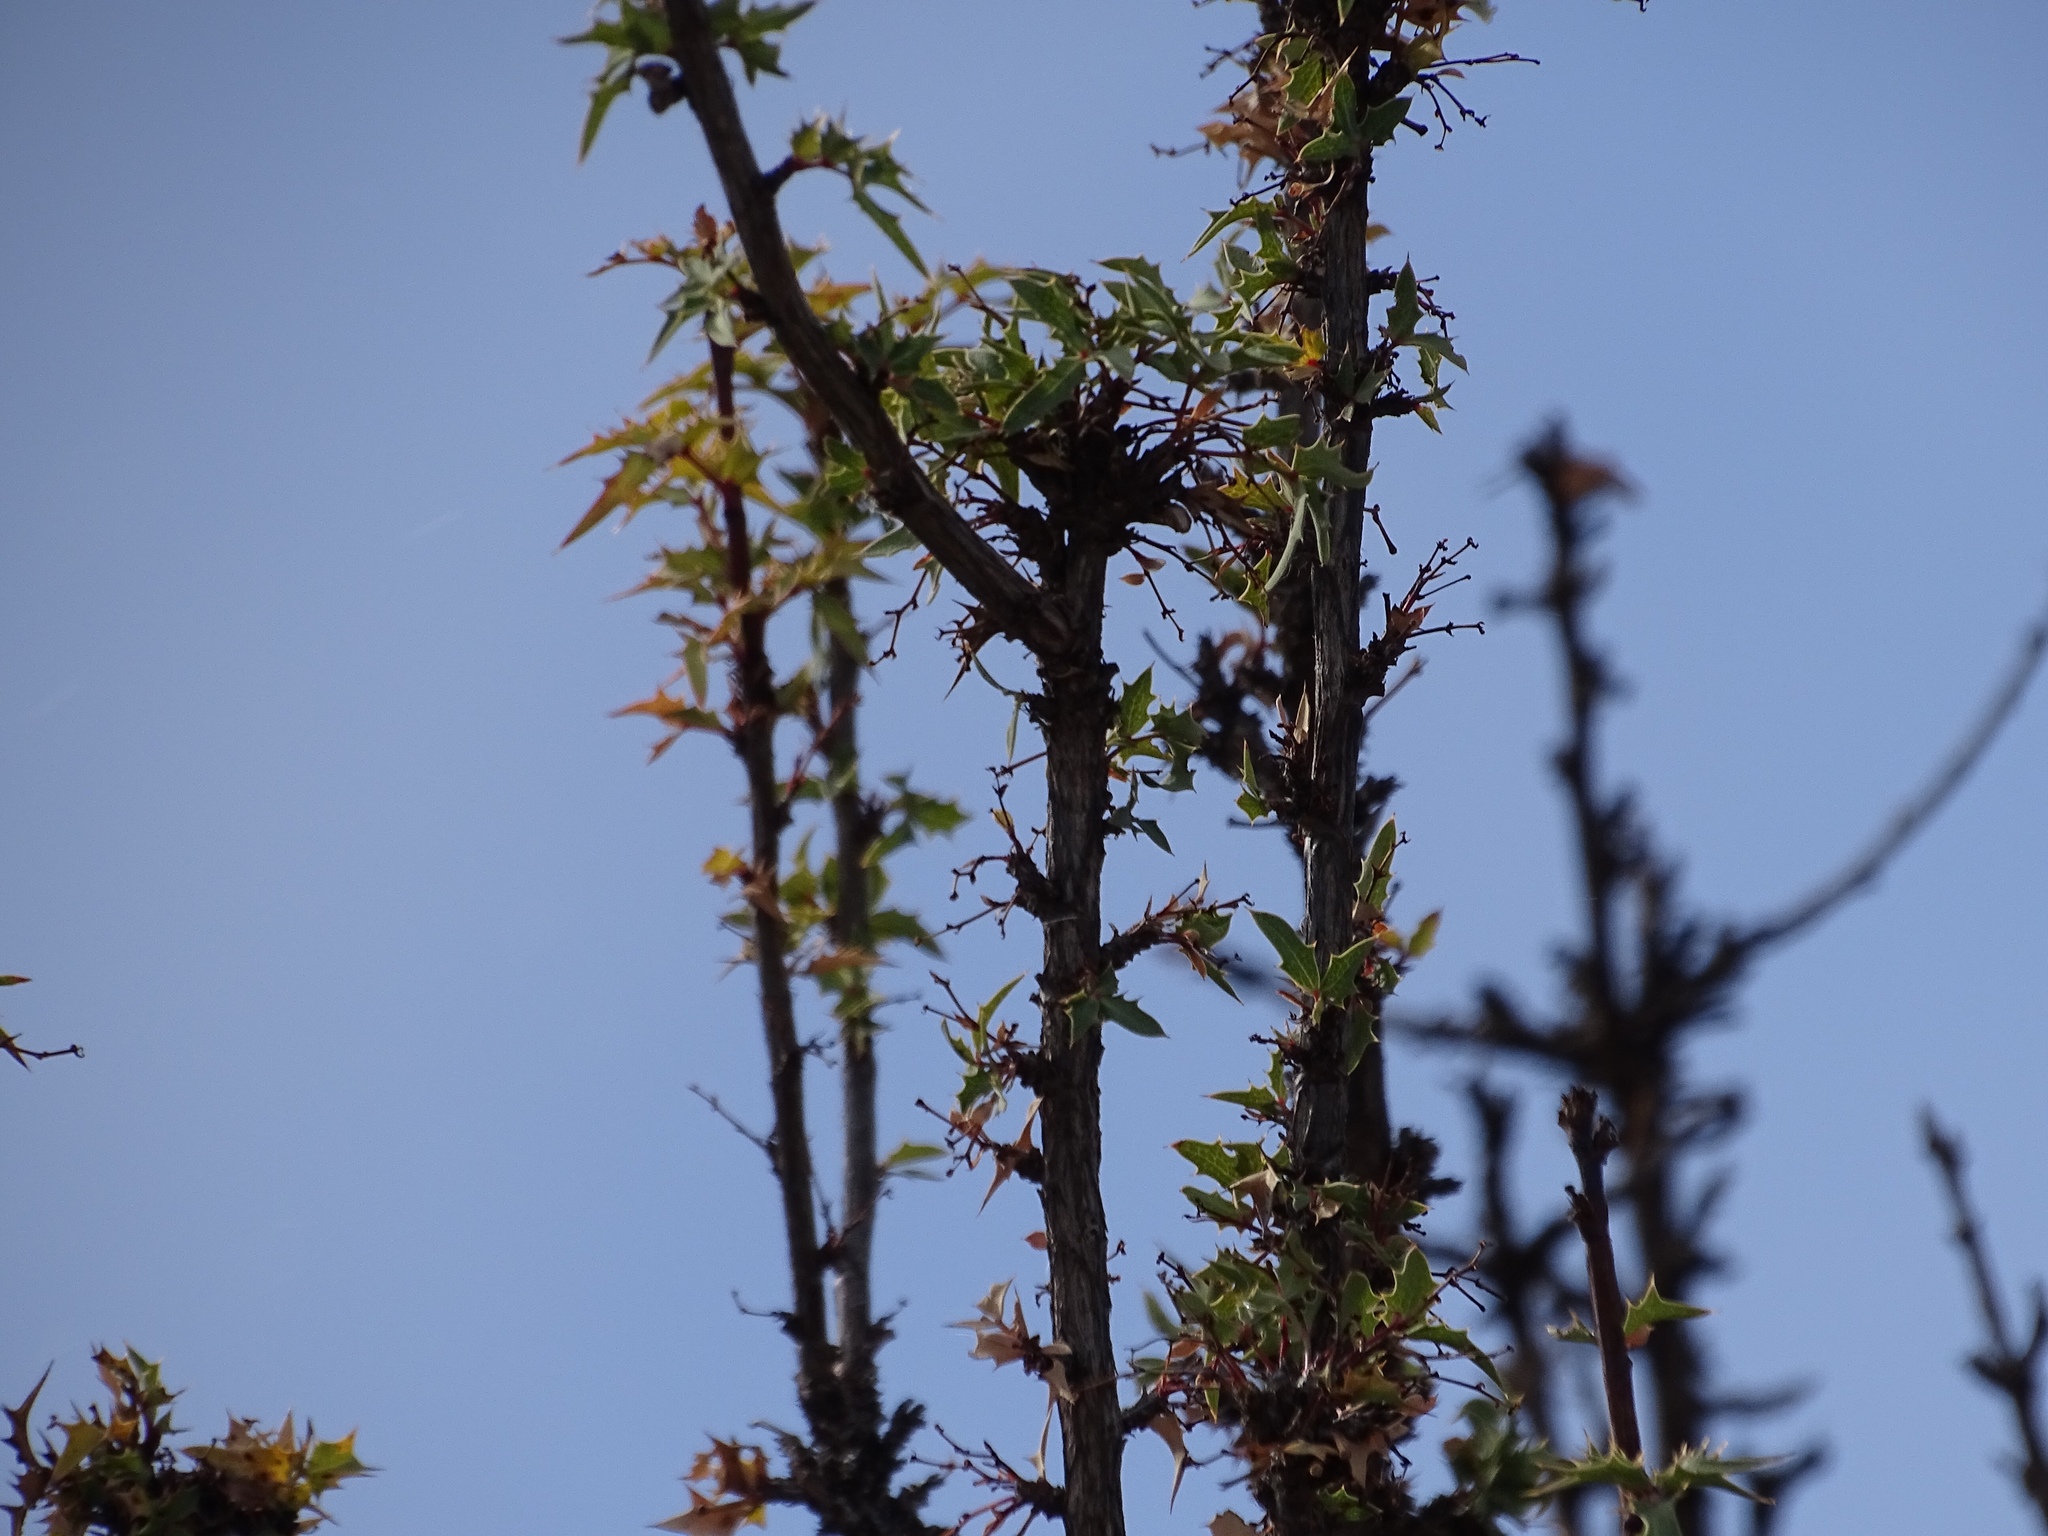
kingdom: Plantae
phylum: Tracheophyta
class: Magnoliopsida
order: Ranunculales
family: Berberidaceae
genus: Alloberberis
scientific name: Alloberberis haematocarpa
